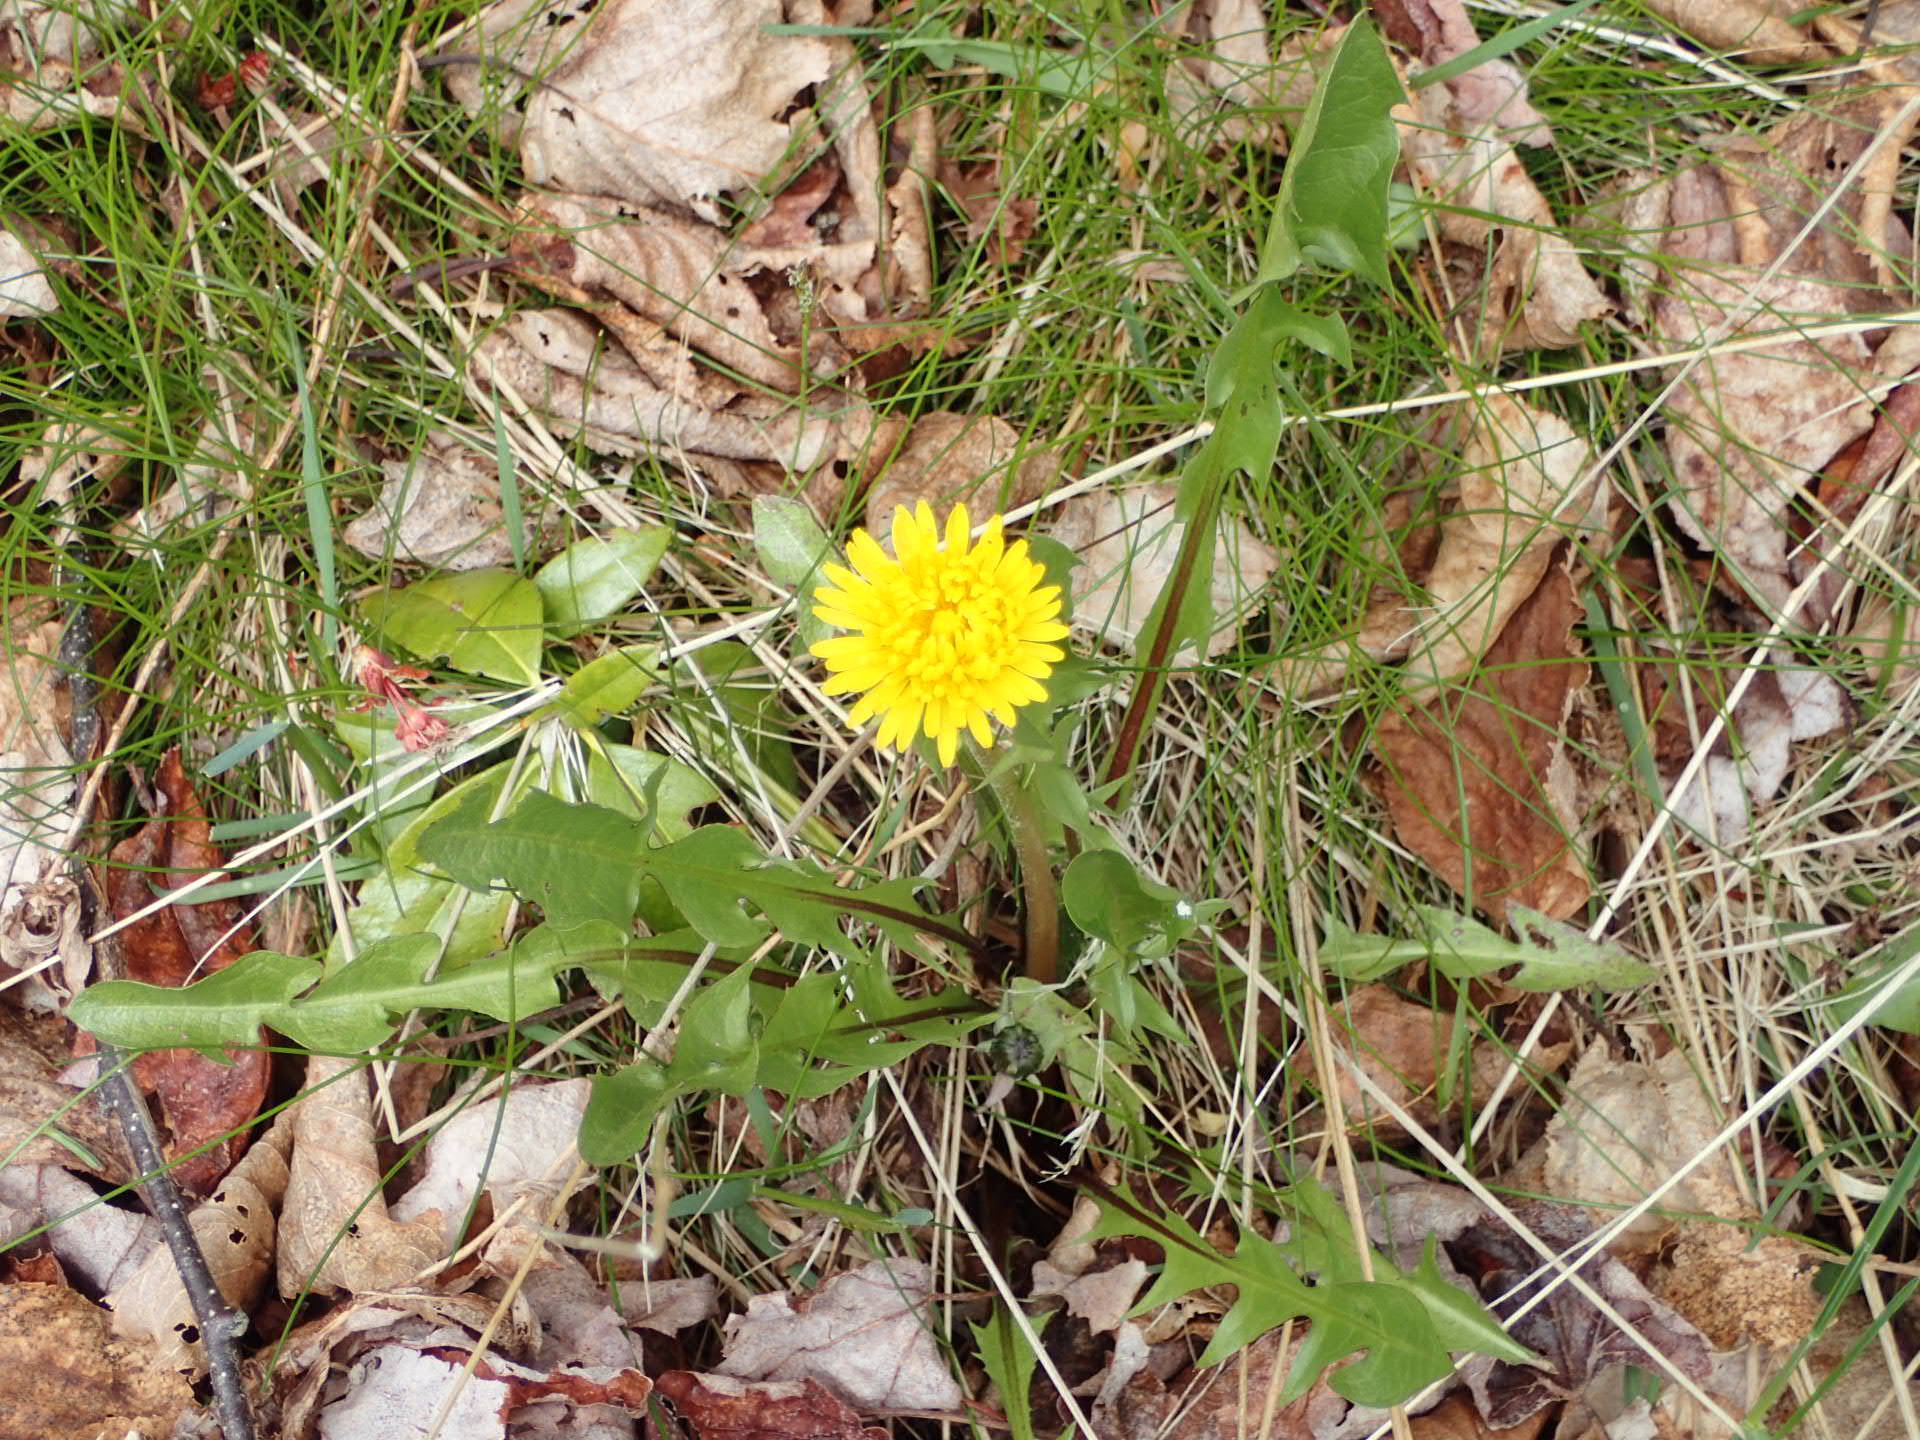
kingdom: Plantae
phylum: Tracheophyta
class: Magnoliopsida
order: Asterales
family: Asteraceae
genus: Taraxacum
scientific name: Taraxacum officinale
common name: Common dandelion
